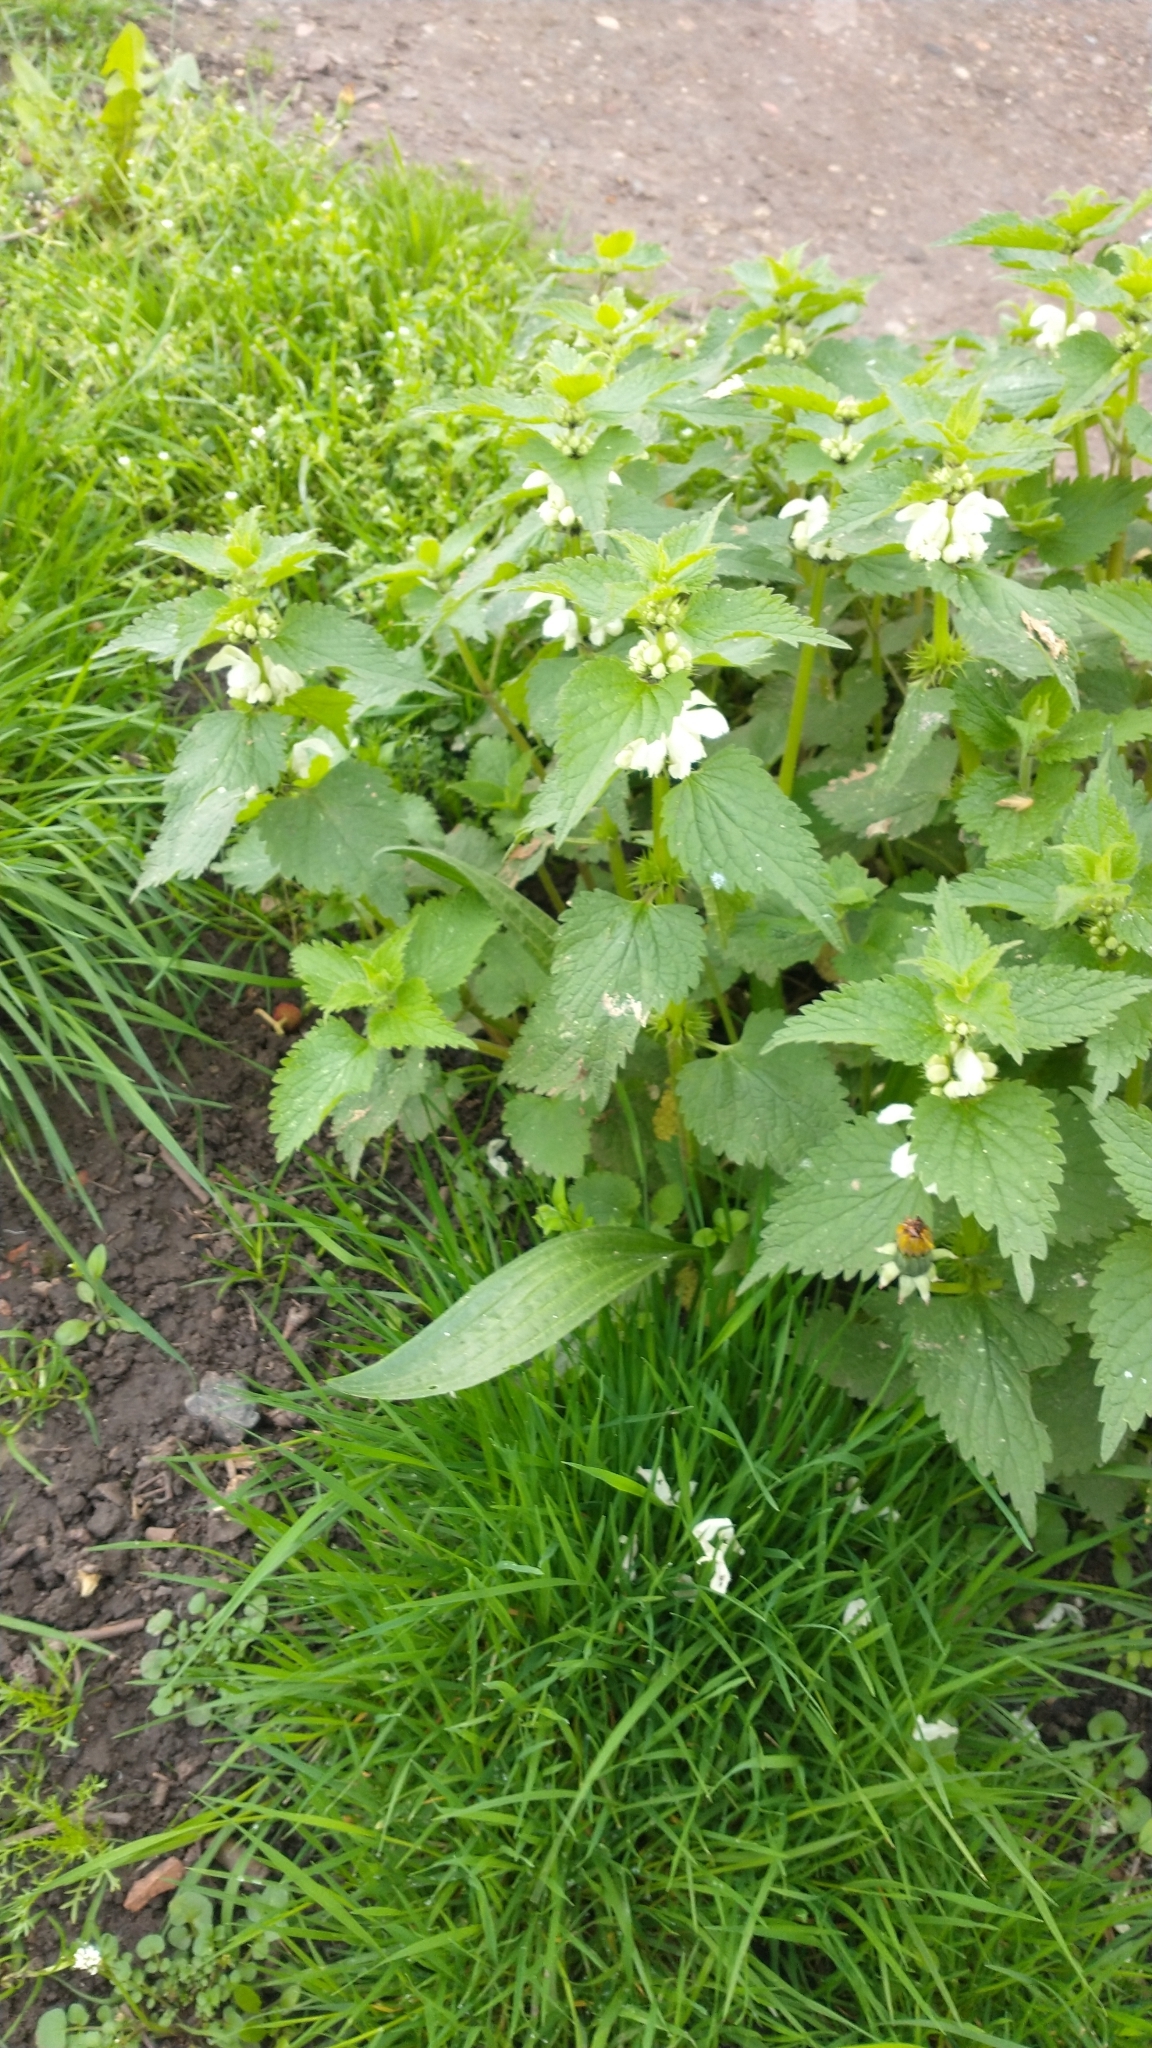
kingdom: Plantae
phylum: Tracheophyta
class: Magnoliopsida
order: Lamiales
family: Lamiaceae
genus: Lamium
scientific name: Lamium album
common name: White dead-nettle
